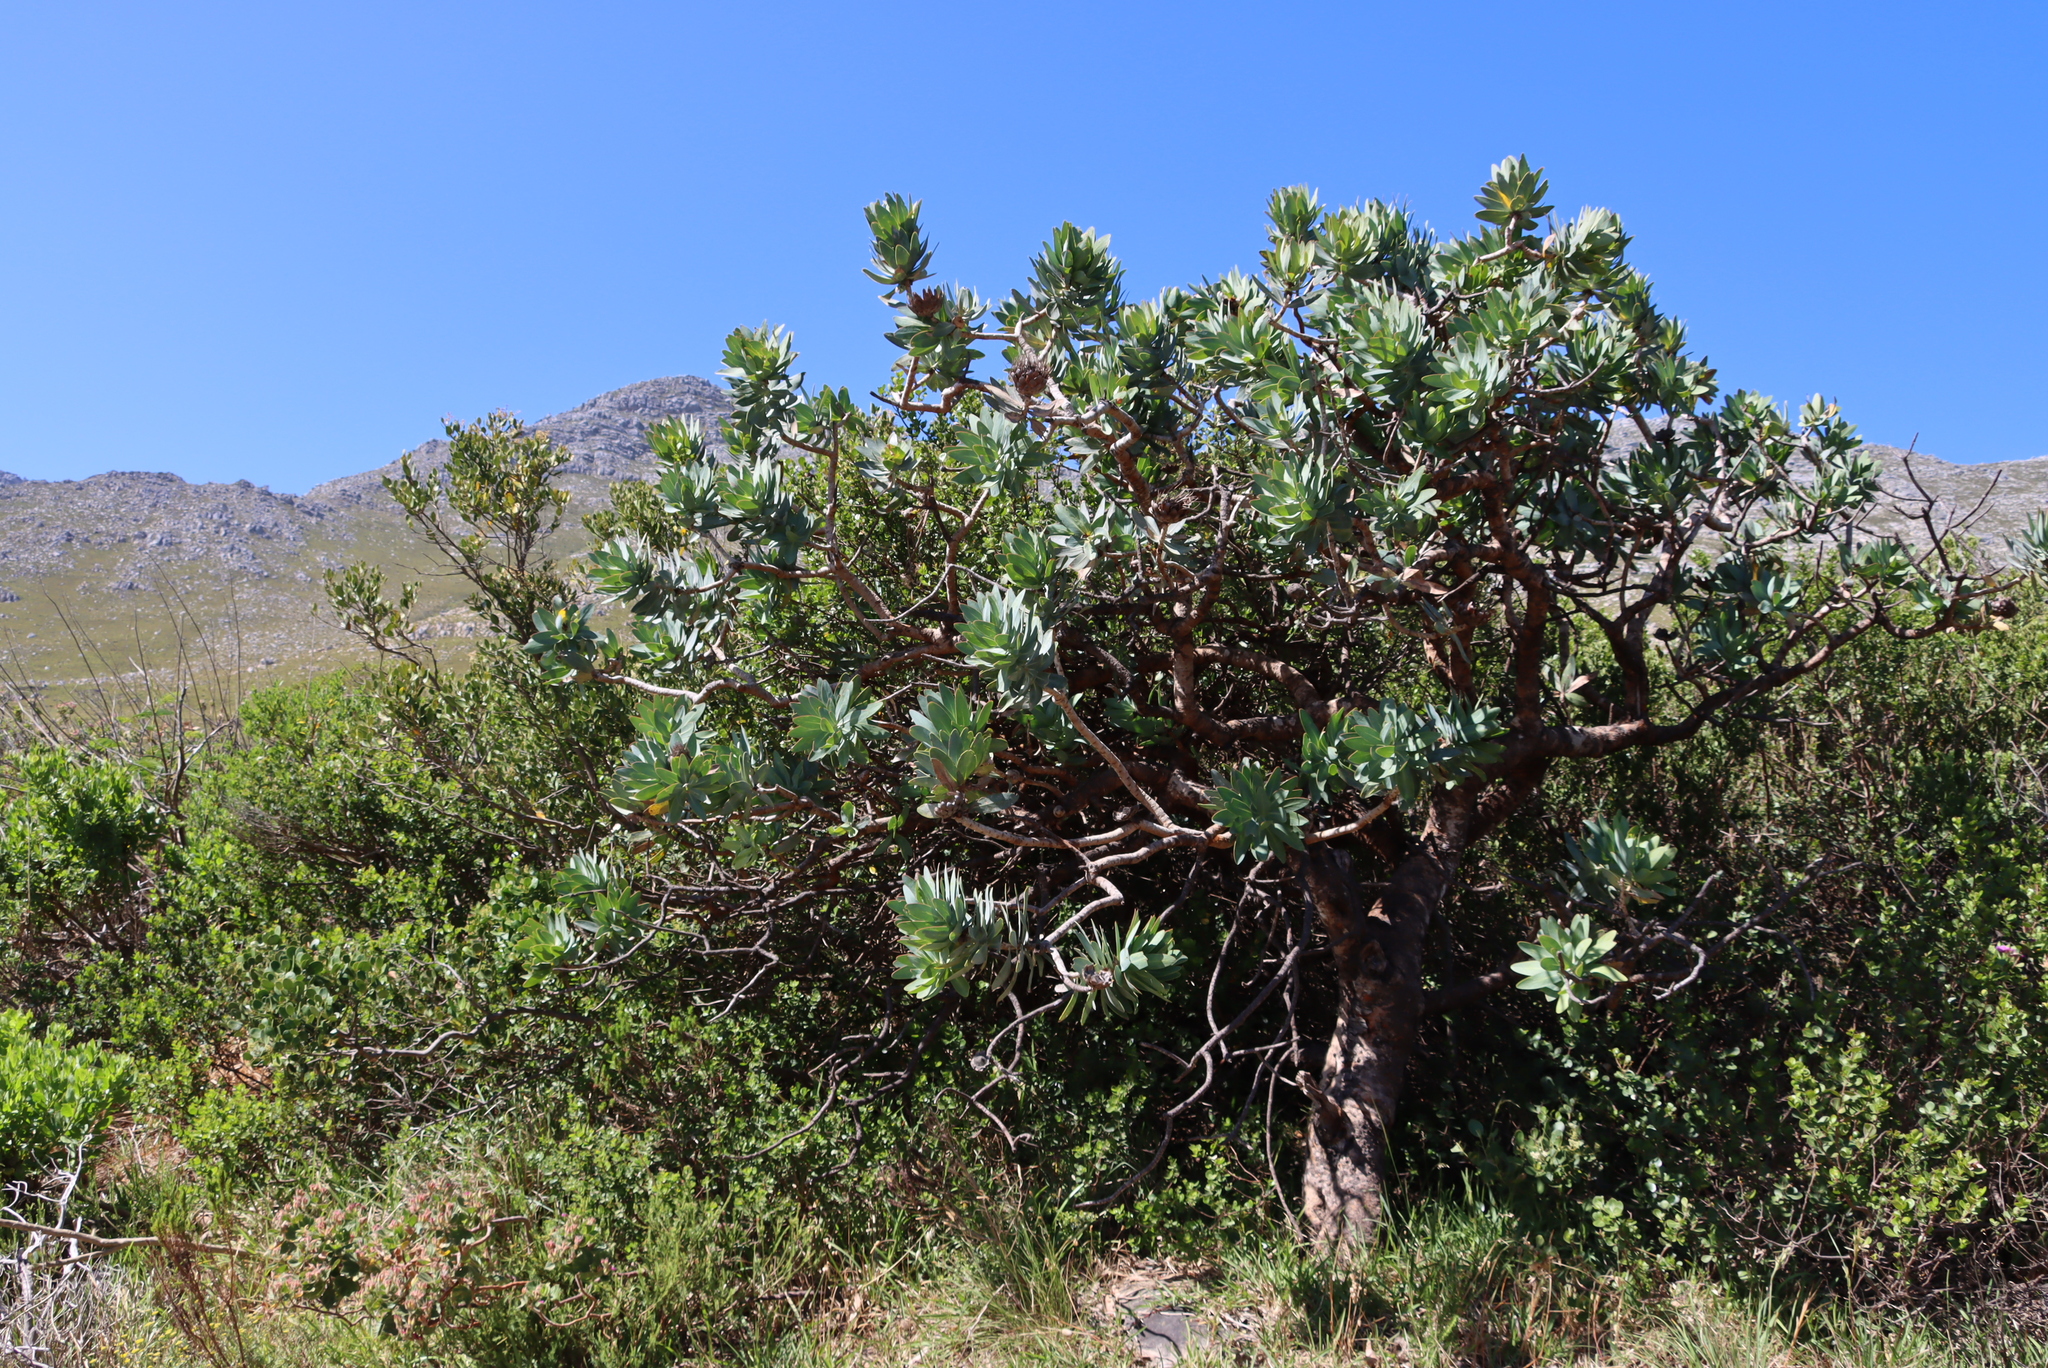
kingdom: Plantae
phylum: Tracheophyta
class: Magnoliopsida
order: Proteales
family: Proteaceae
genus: Protea
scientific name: Protea nitida
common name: Tree protea
